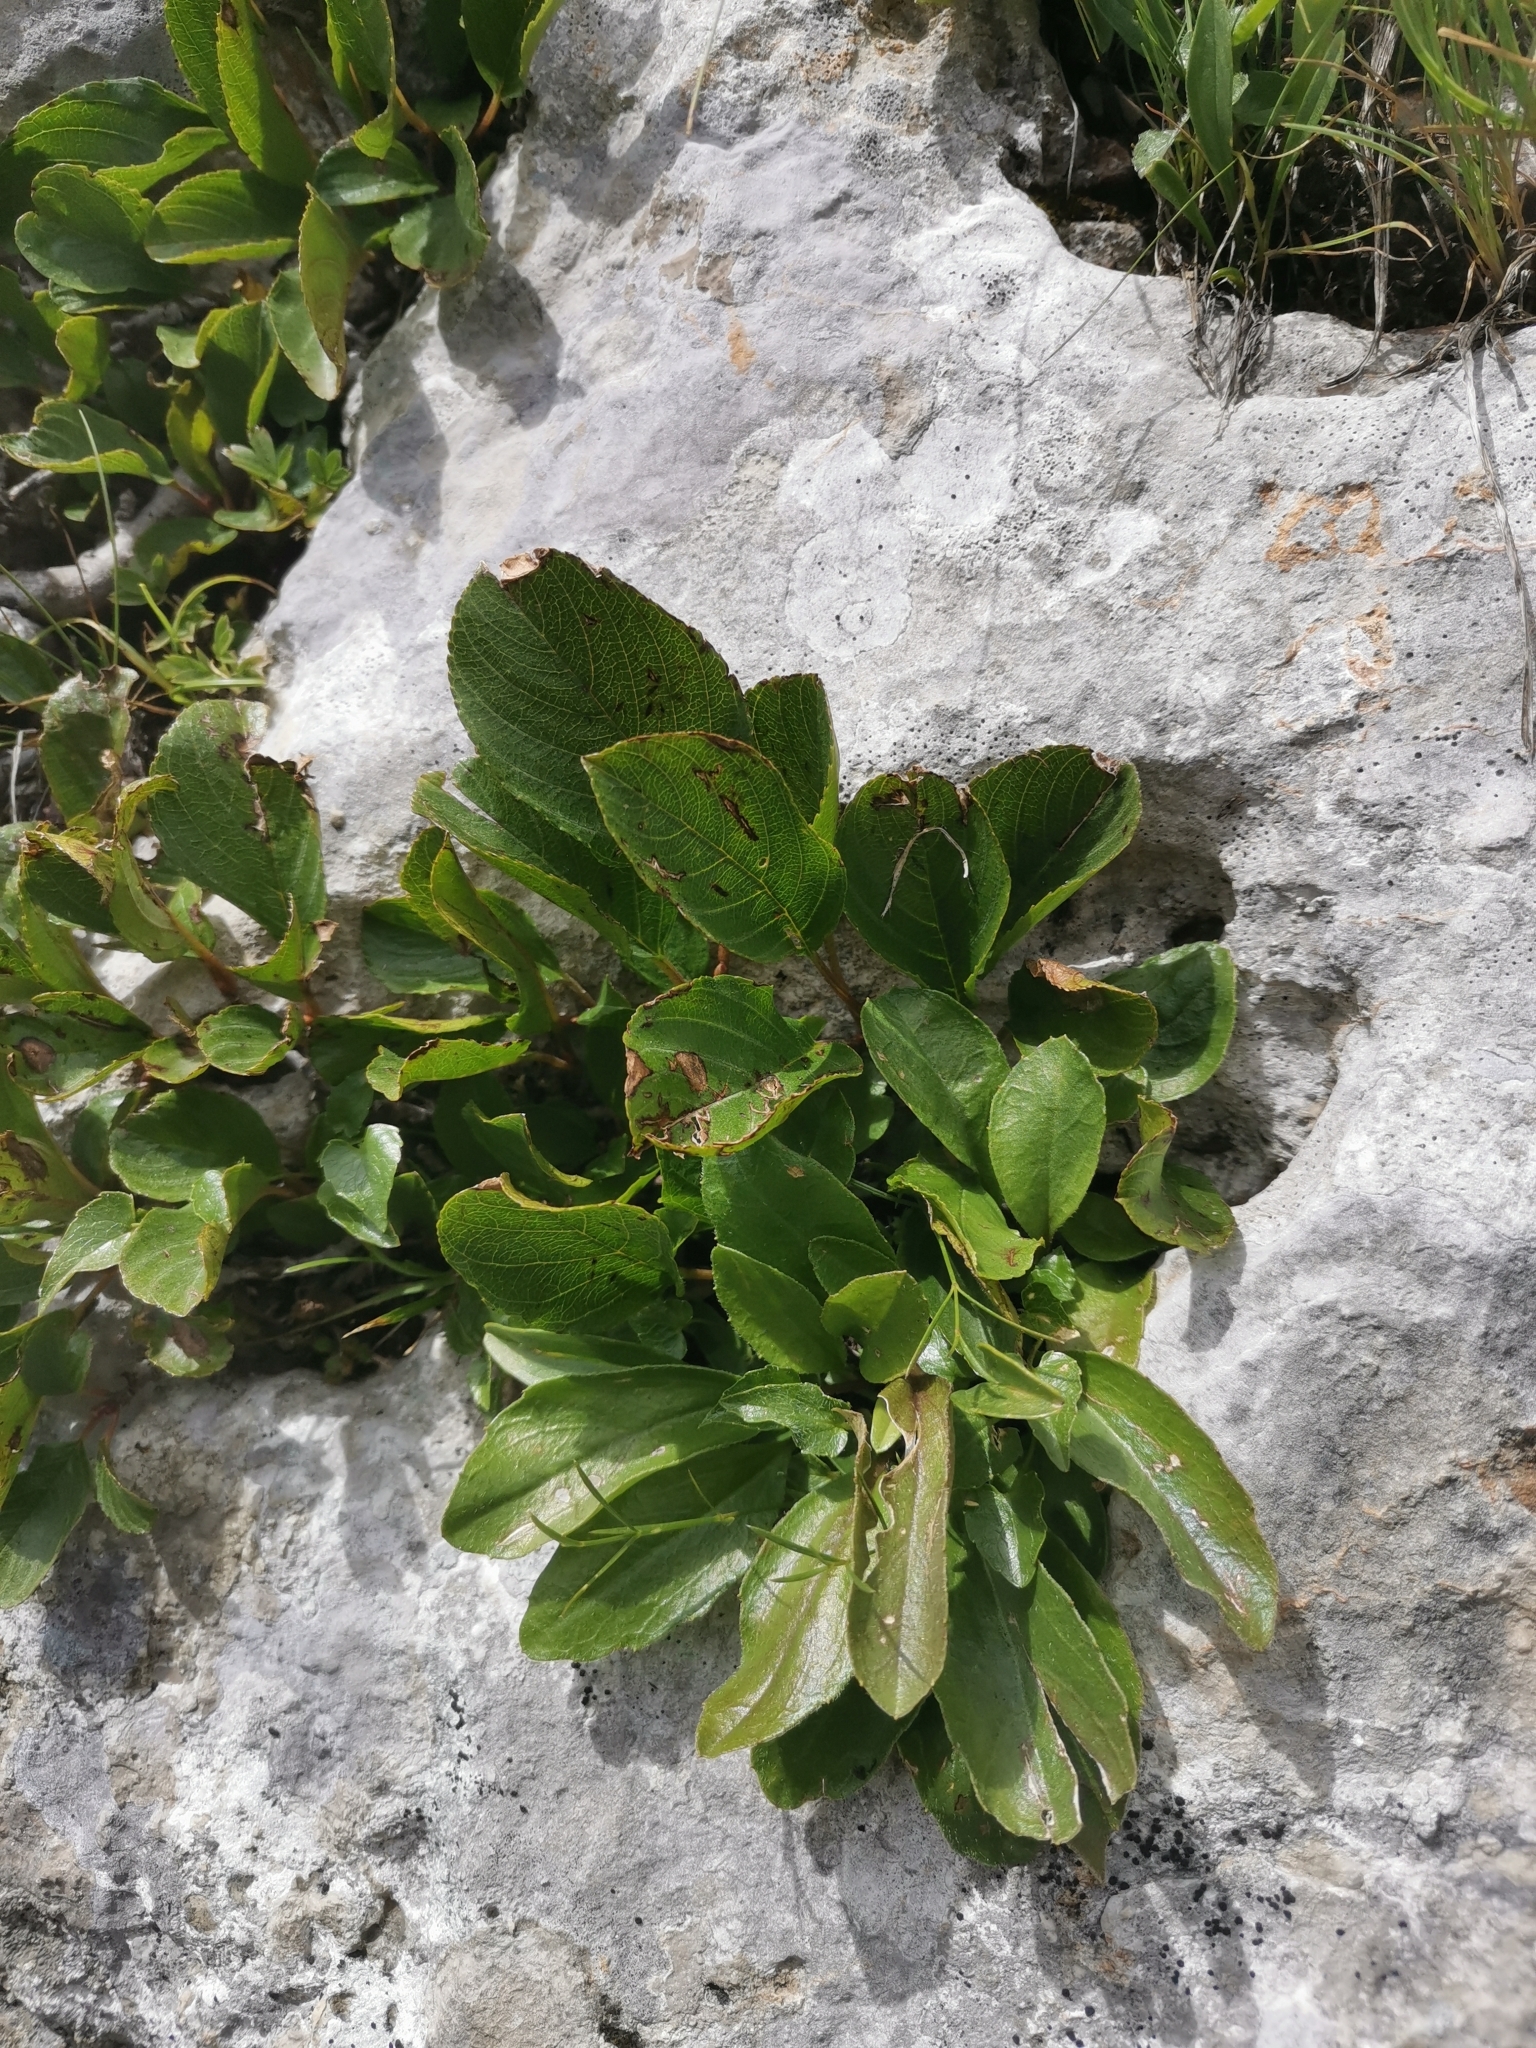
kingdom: Plantae
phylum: Tracheophyta
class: Magnoliopsida
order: Rosales
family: Rhamnaceae
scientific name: Rhamnaceae
